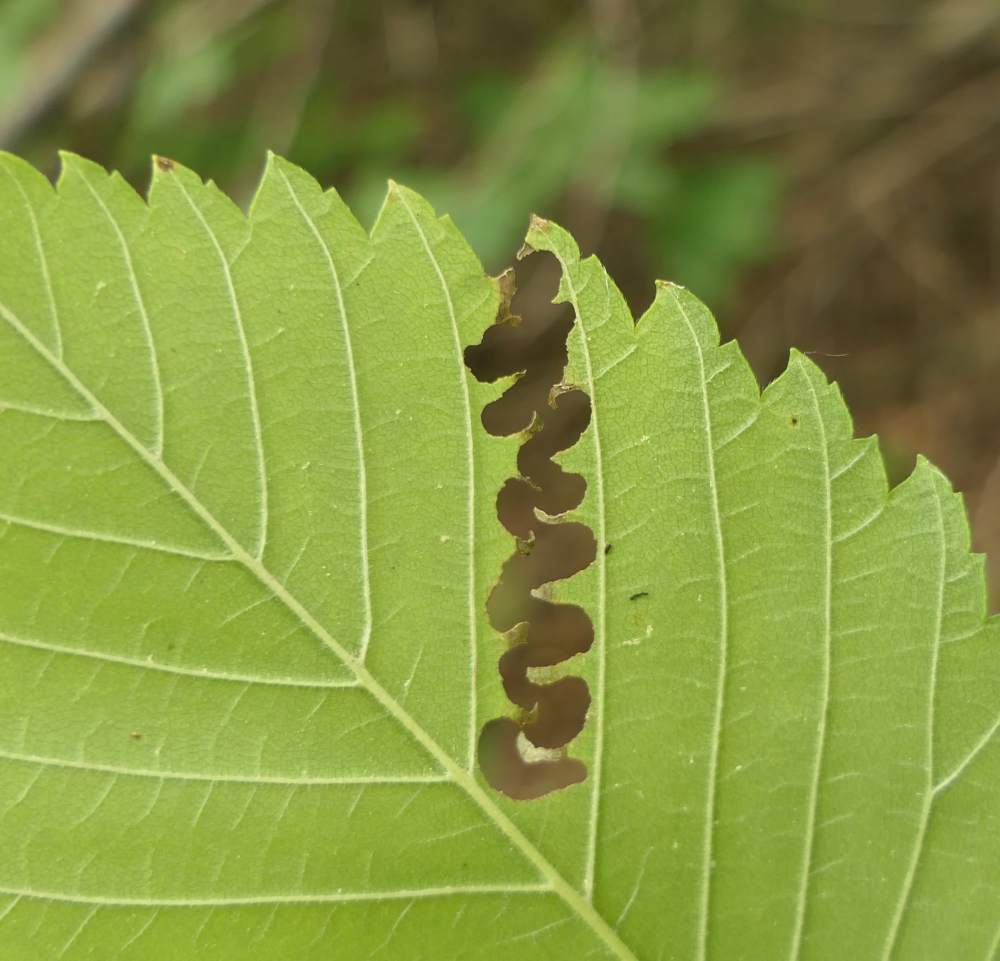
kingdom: Animalia
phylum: Arthropoda
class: Insecta
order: Hymenoptera
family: Argidae
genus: Aproceros
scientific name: Aproceros leucopoda
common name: Zig-zag elm sawfly
